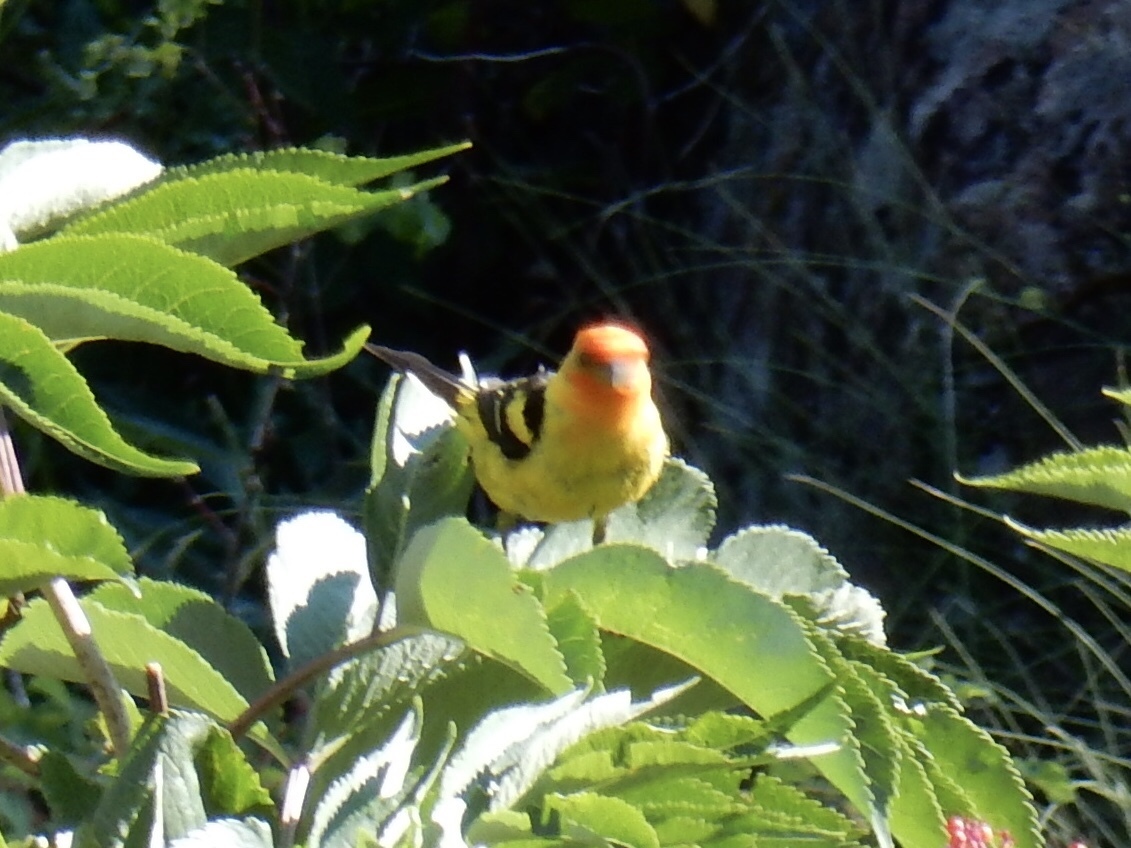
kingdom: Animalia
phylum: Chordata
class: Aves
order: Passeriformes
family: Cardinalidae
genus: Piranga
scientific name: Piranga ludoviciana
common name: Western tanager
